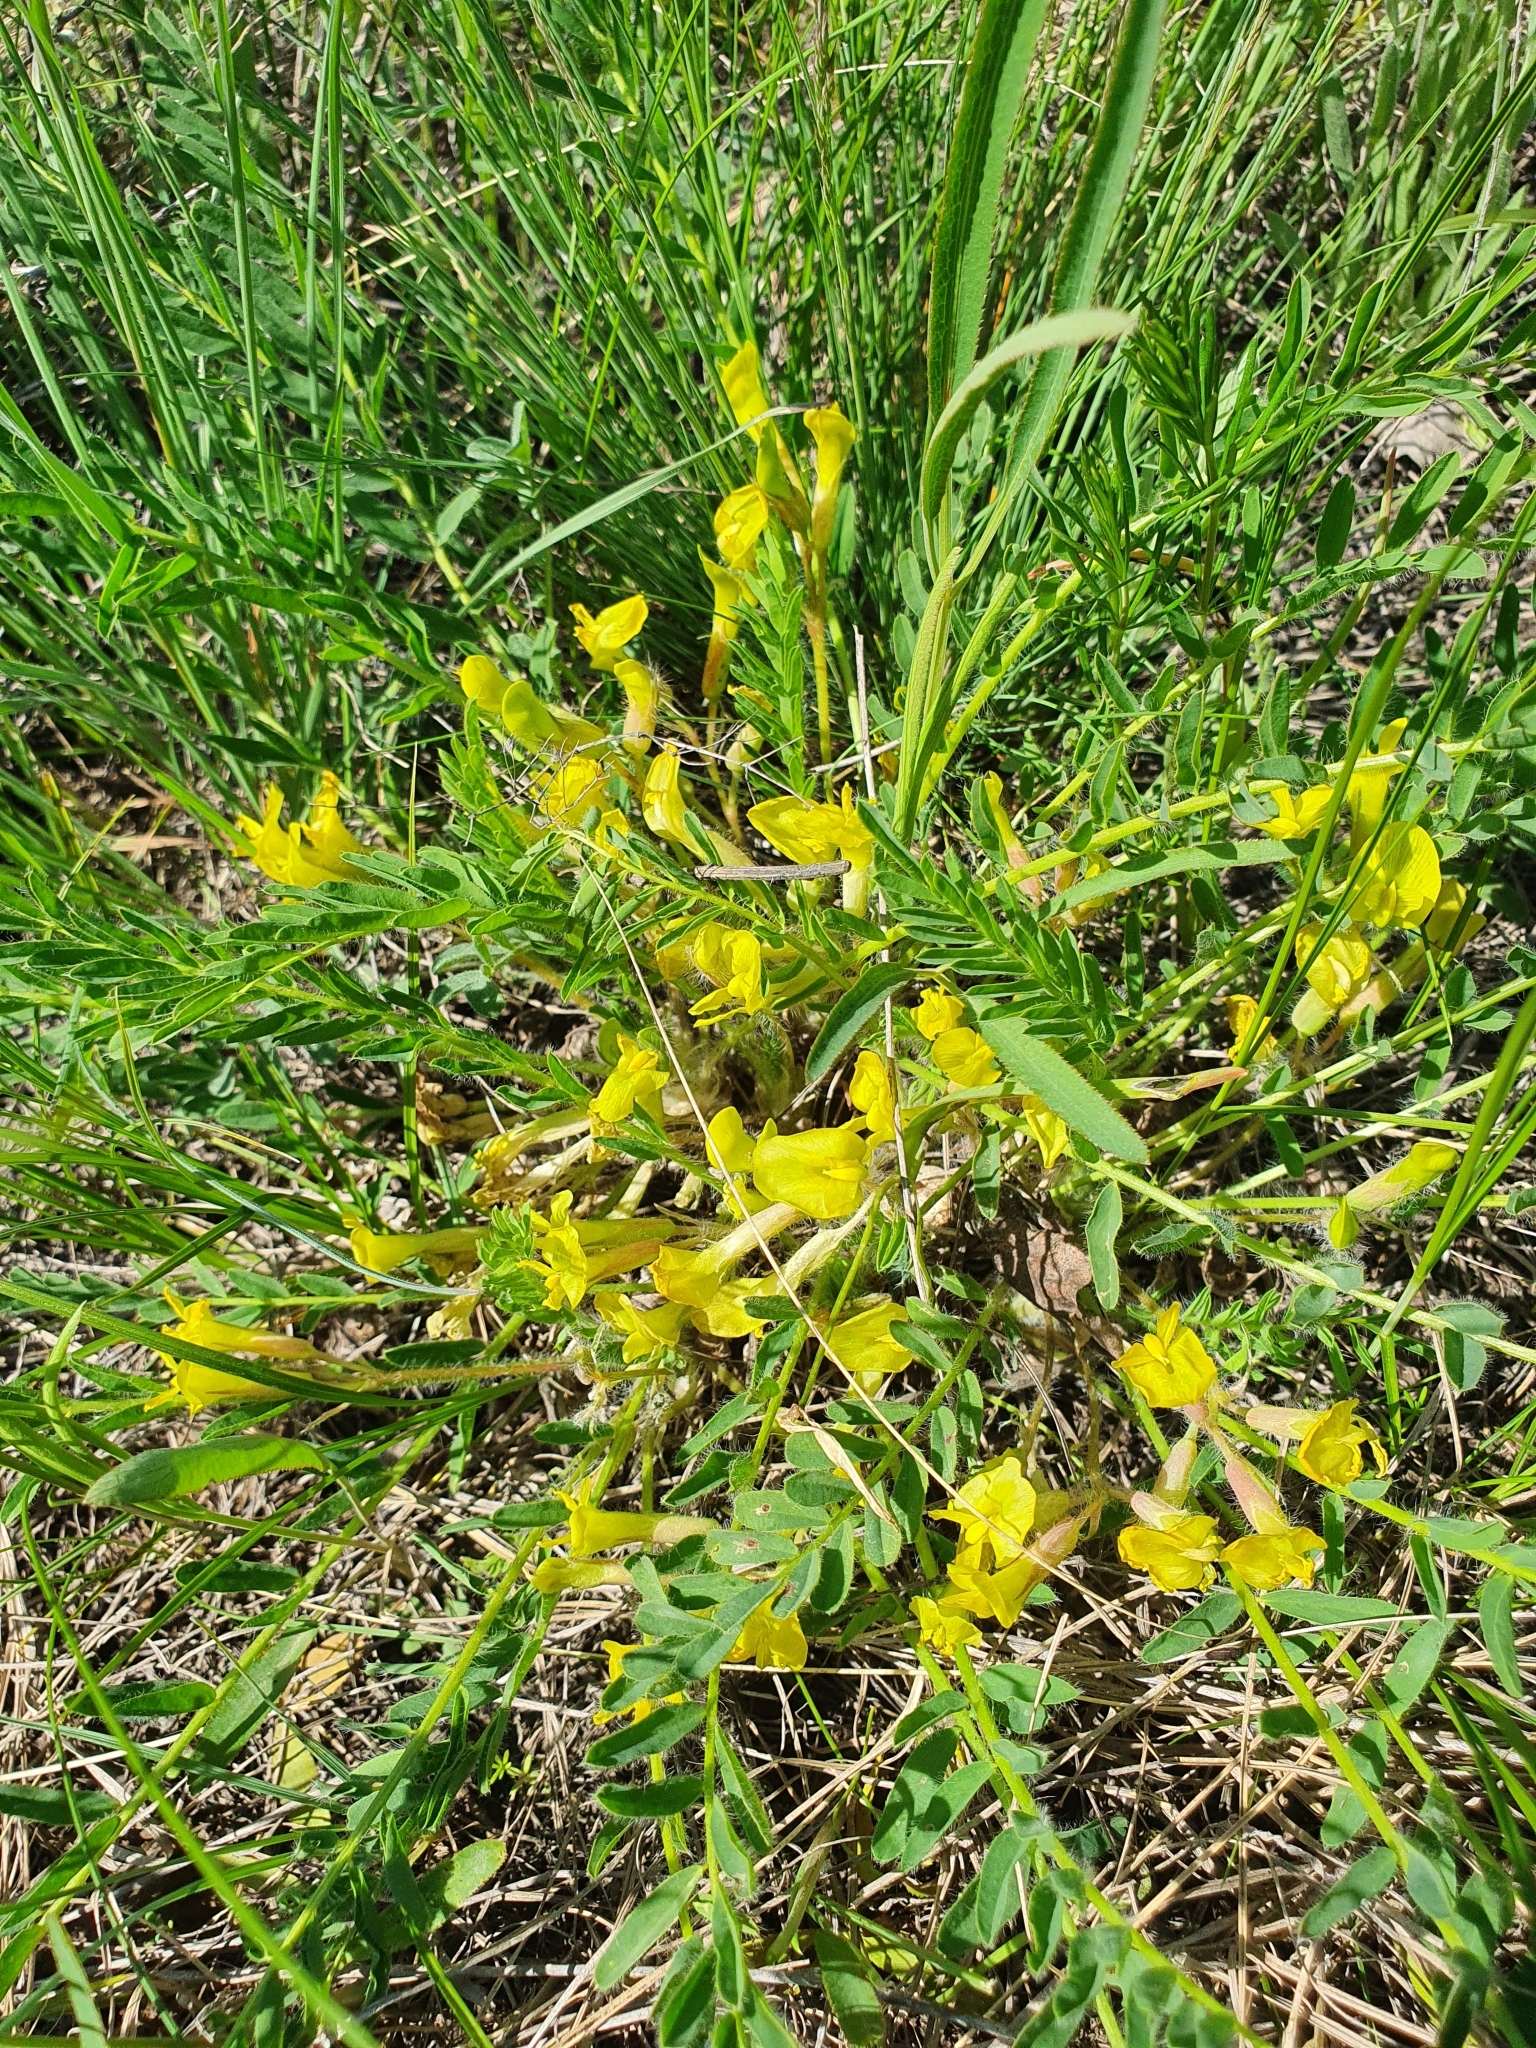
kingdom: Plantae
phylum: Tracheophyta
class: Magnoliopsida
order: Fabales
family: Fabaceae
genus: Astragalus
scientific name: Astragalus wolgensis
